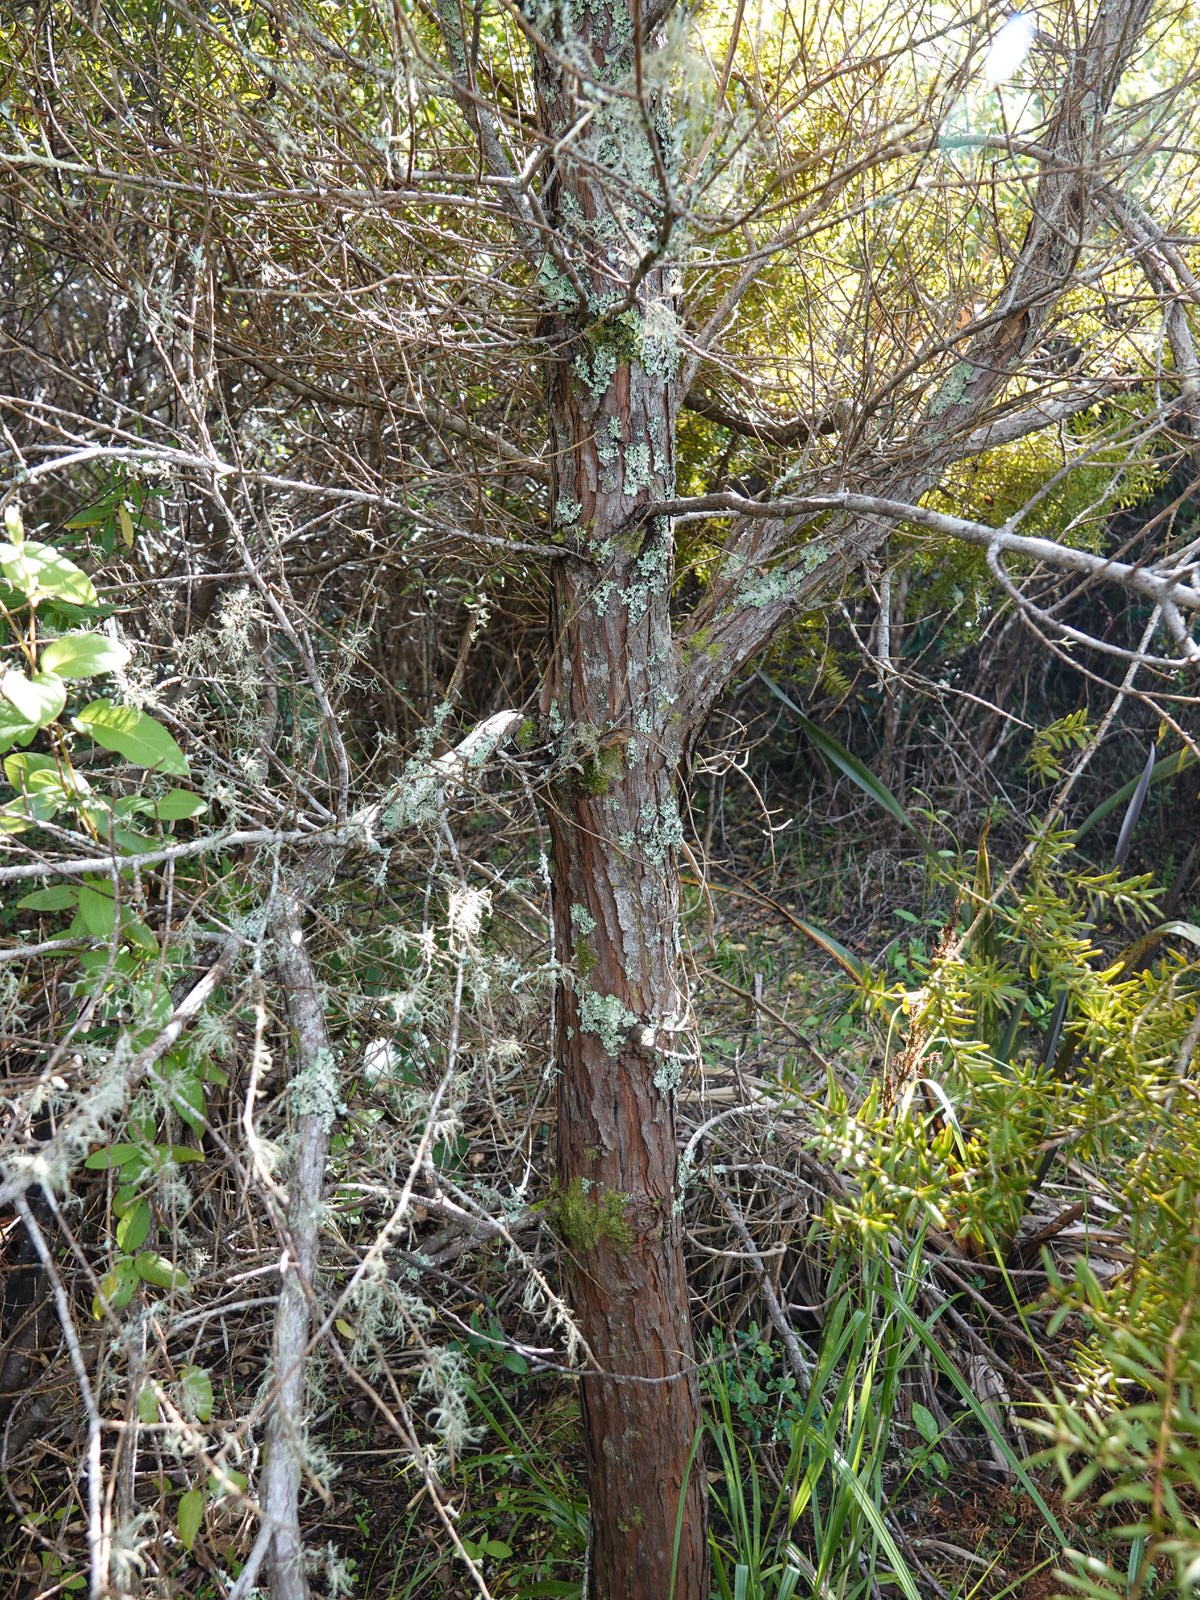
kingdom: Plantae
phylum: Tracheophyta
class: Pinopsida
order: Pinales
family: Podocarpaceae
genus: Podocarpus
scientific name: Podocarpus totara
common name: Totara
